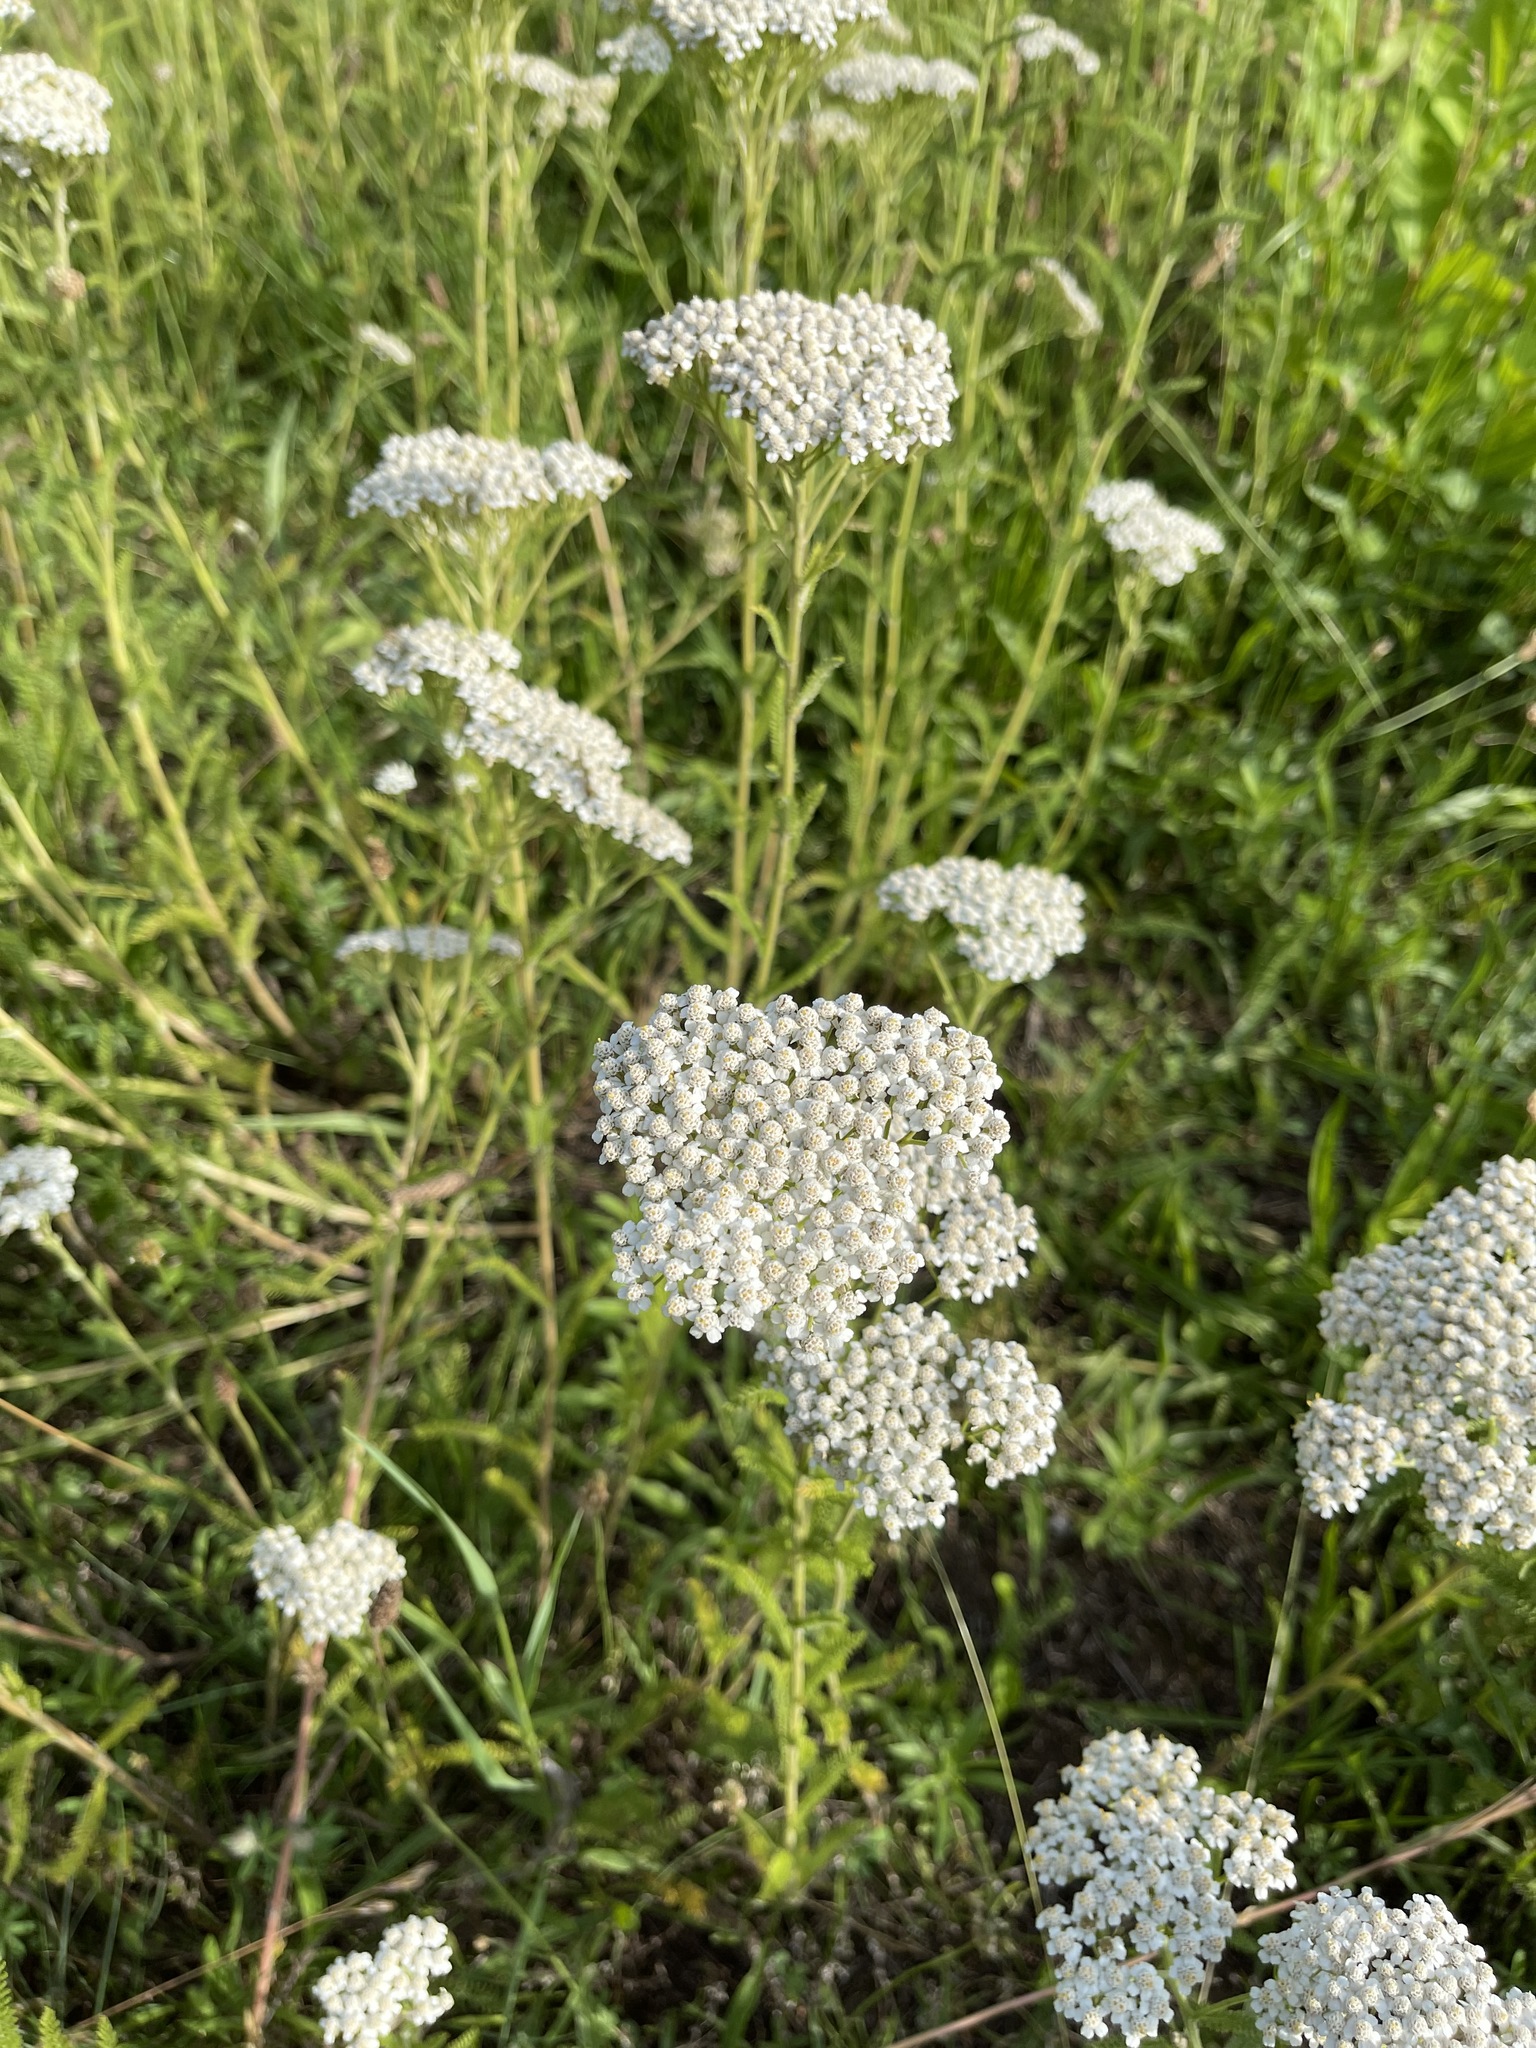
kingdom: Plantae
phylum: Tracheophyta
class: Magnoliopsida
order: Asterales
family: Asteraceae
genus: Achillea
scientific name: Achillea millefolium
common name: Yarrow
